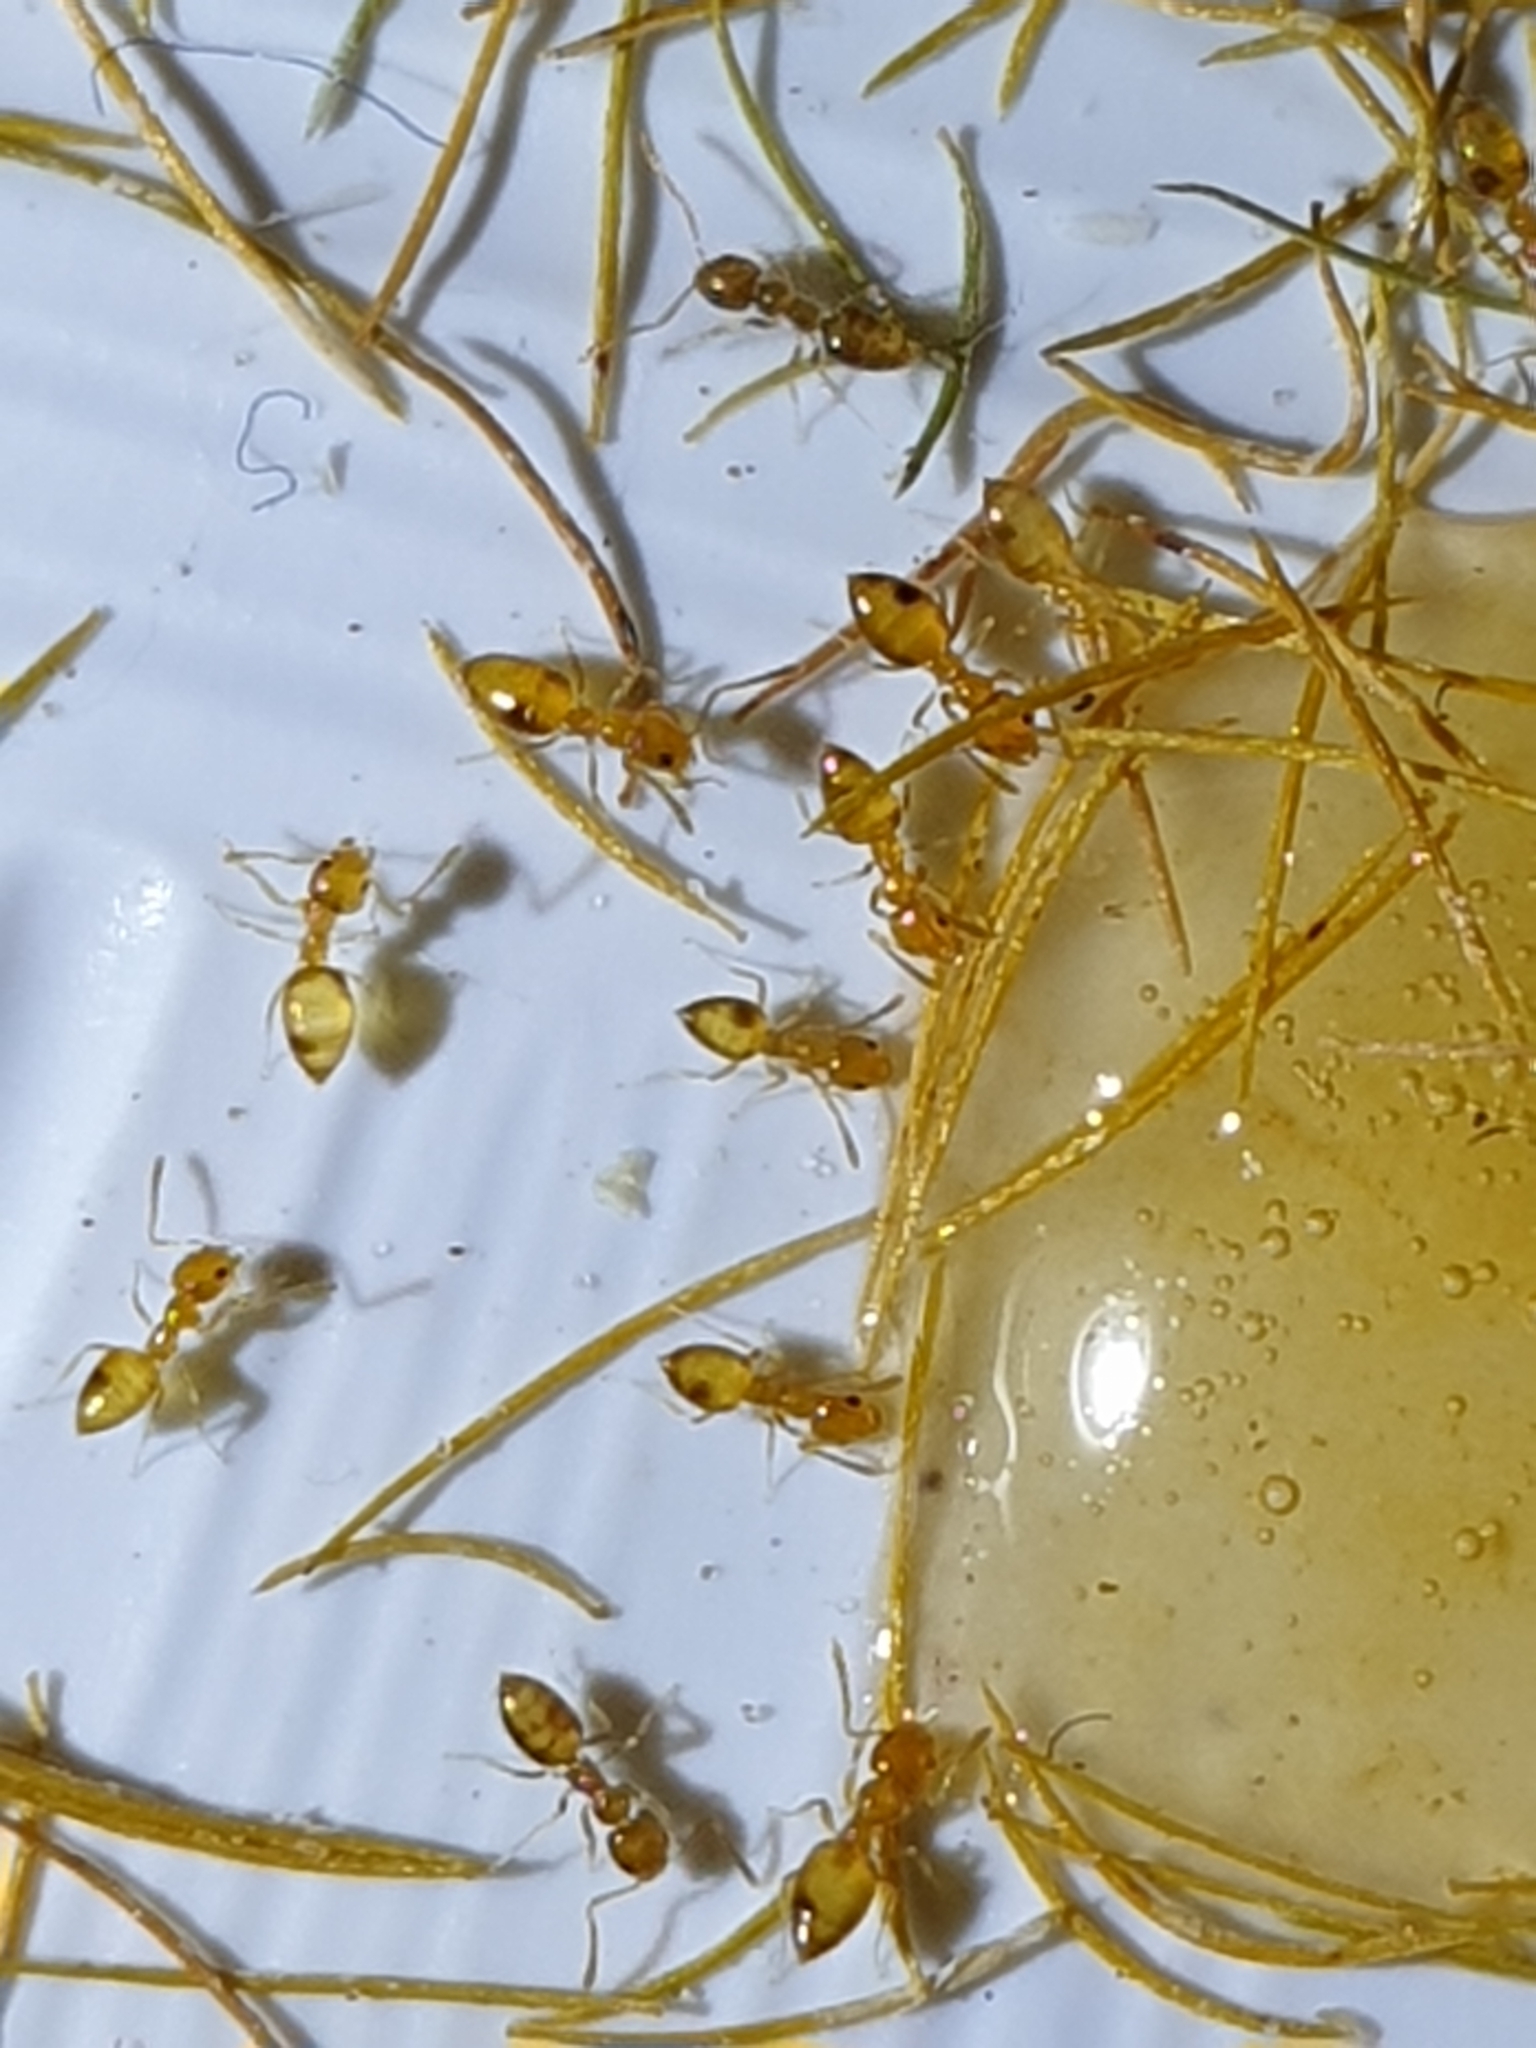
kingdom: Animalia
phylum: Arthropoda
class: Insecta
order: Hymenoptera
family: Formicidae
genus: Plagiolepis
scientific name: Plagiolepis alluaudi
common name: Little yellow ant
